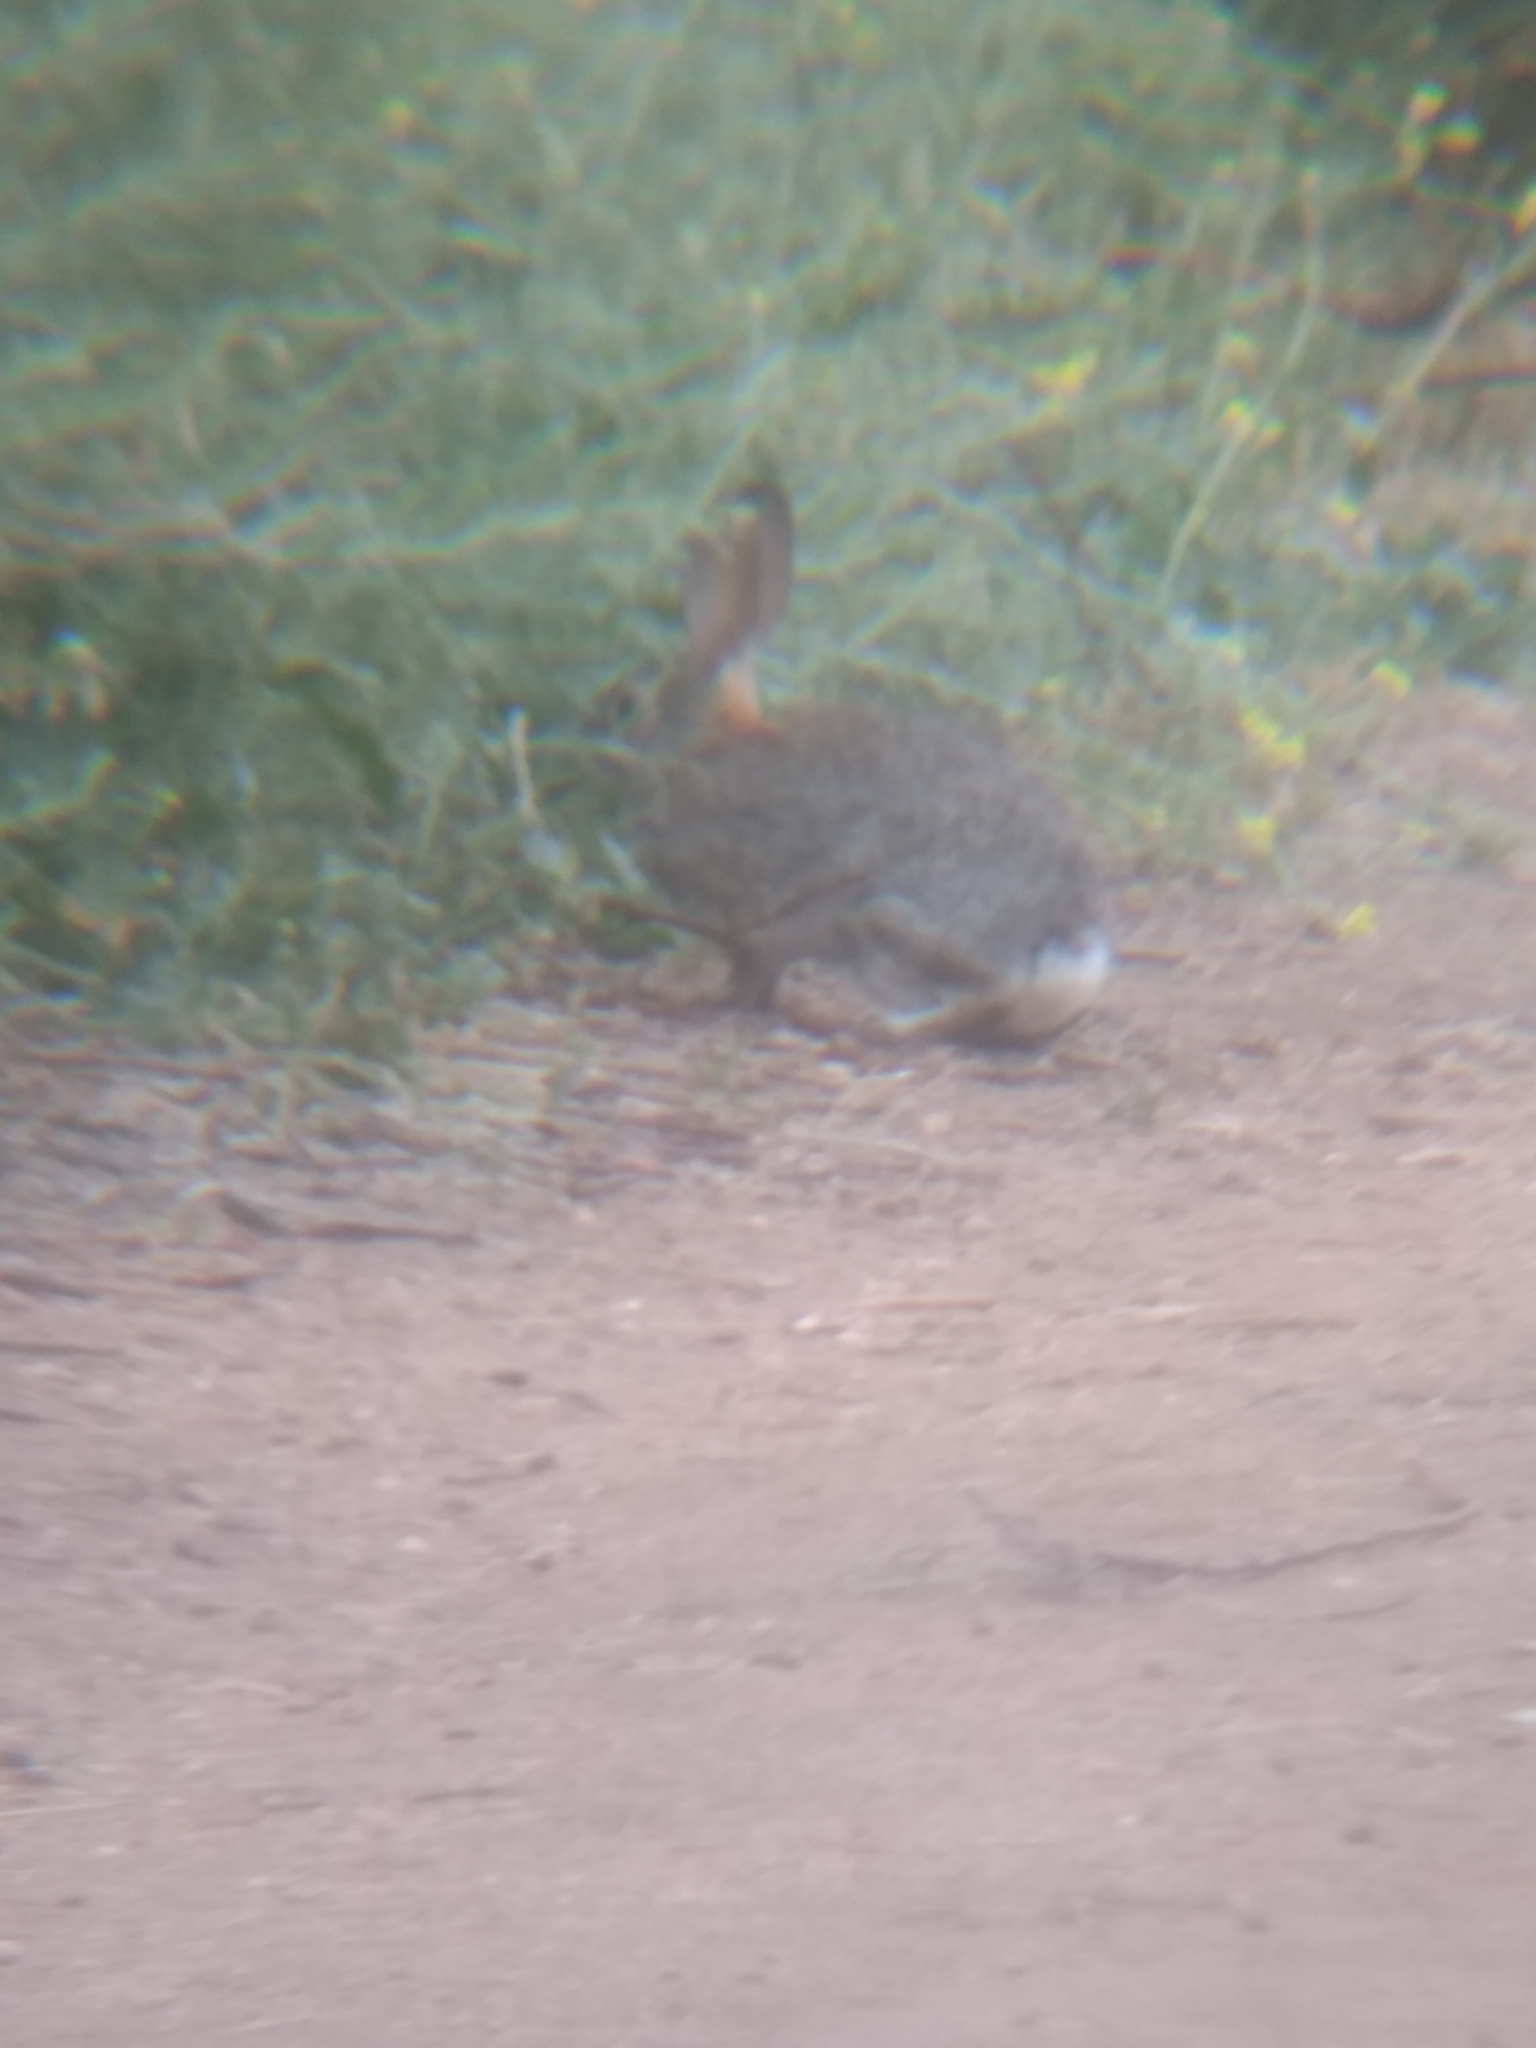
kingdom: Animalia
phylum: Chordata
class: Mammalia
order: Lagomorpha
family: Leporidae
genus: Sylvilagus
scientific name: Sylvilagus audubonii
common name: Desert cottontail
